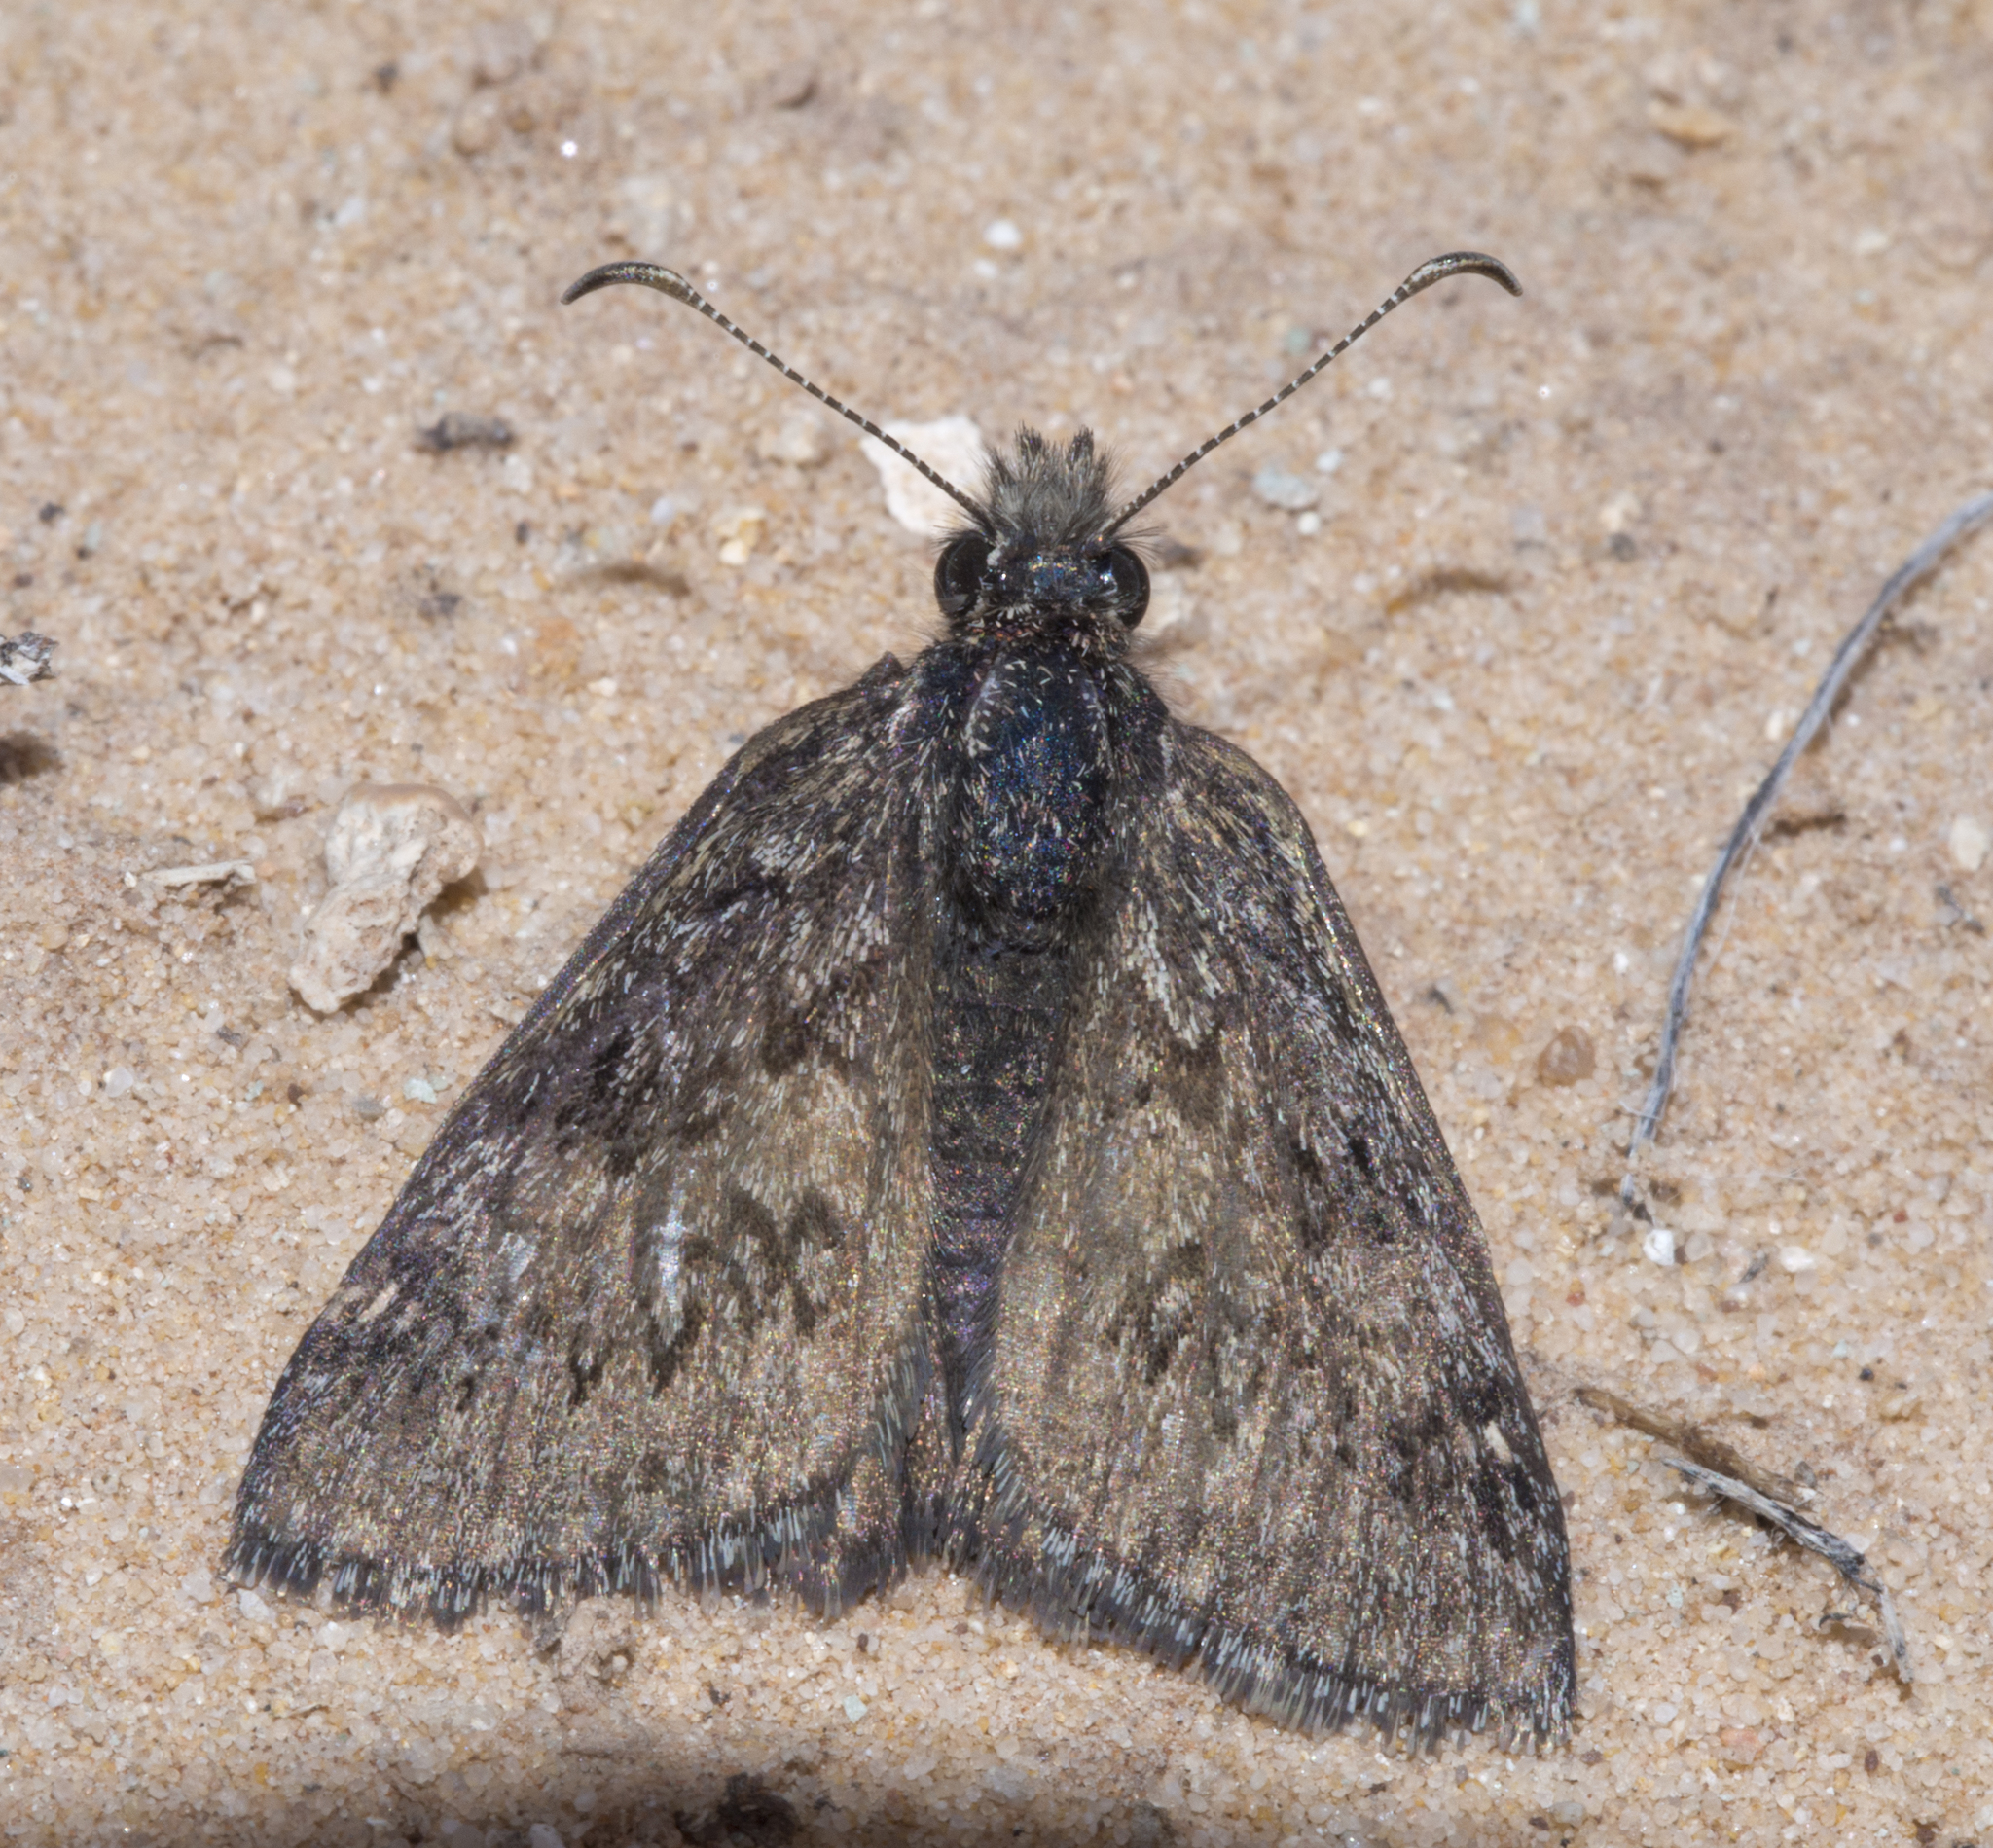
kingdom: Animalia
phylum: Arthropoda
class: Insecta
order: Lepidoptera
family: Hesperiidae
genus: Erynnis
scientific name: Erynnis brizo
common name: Sleepy duskywing
